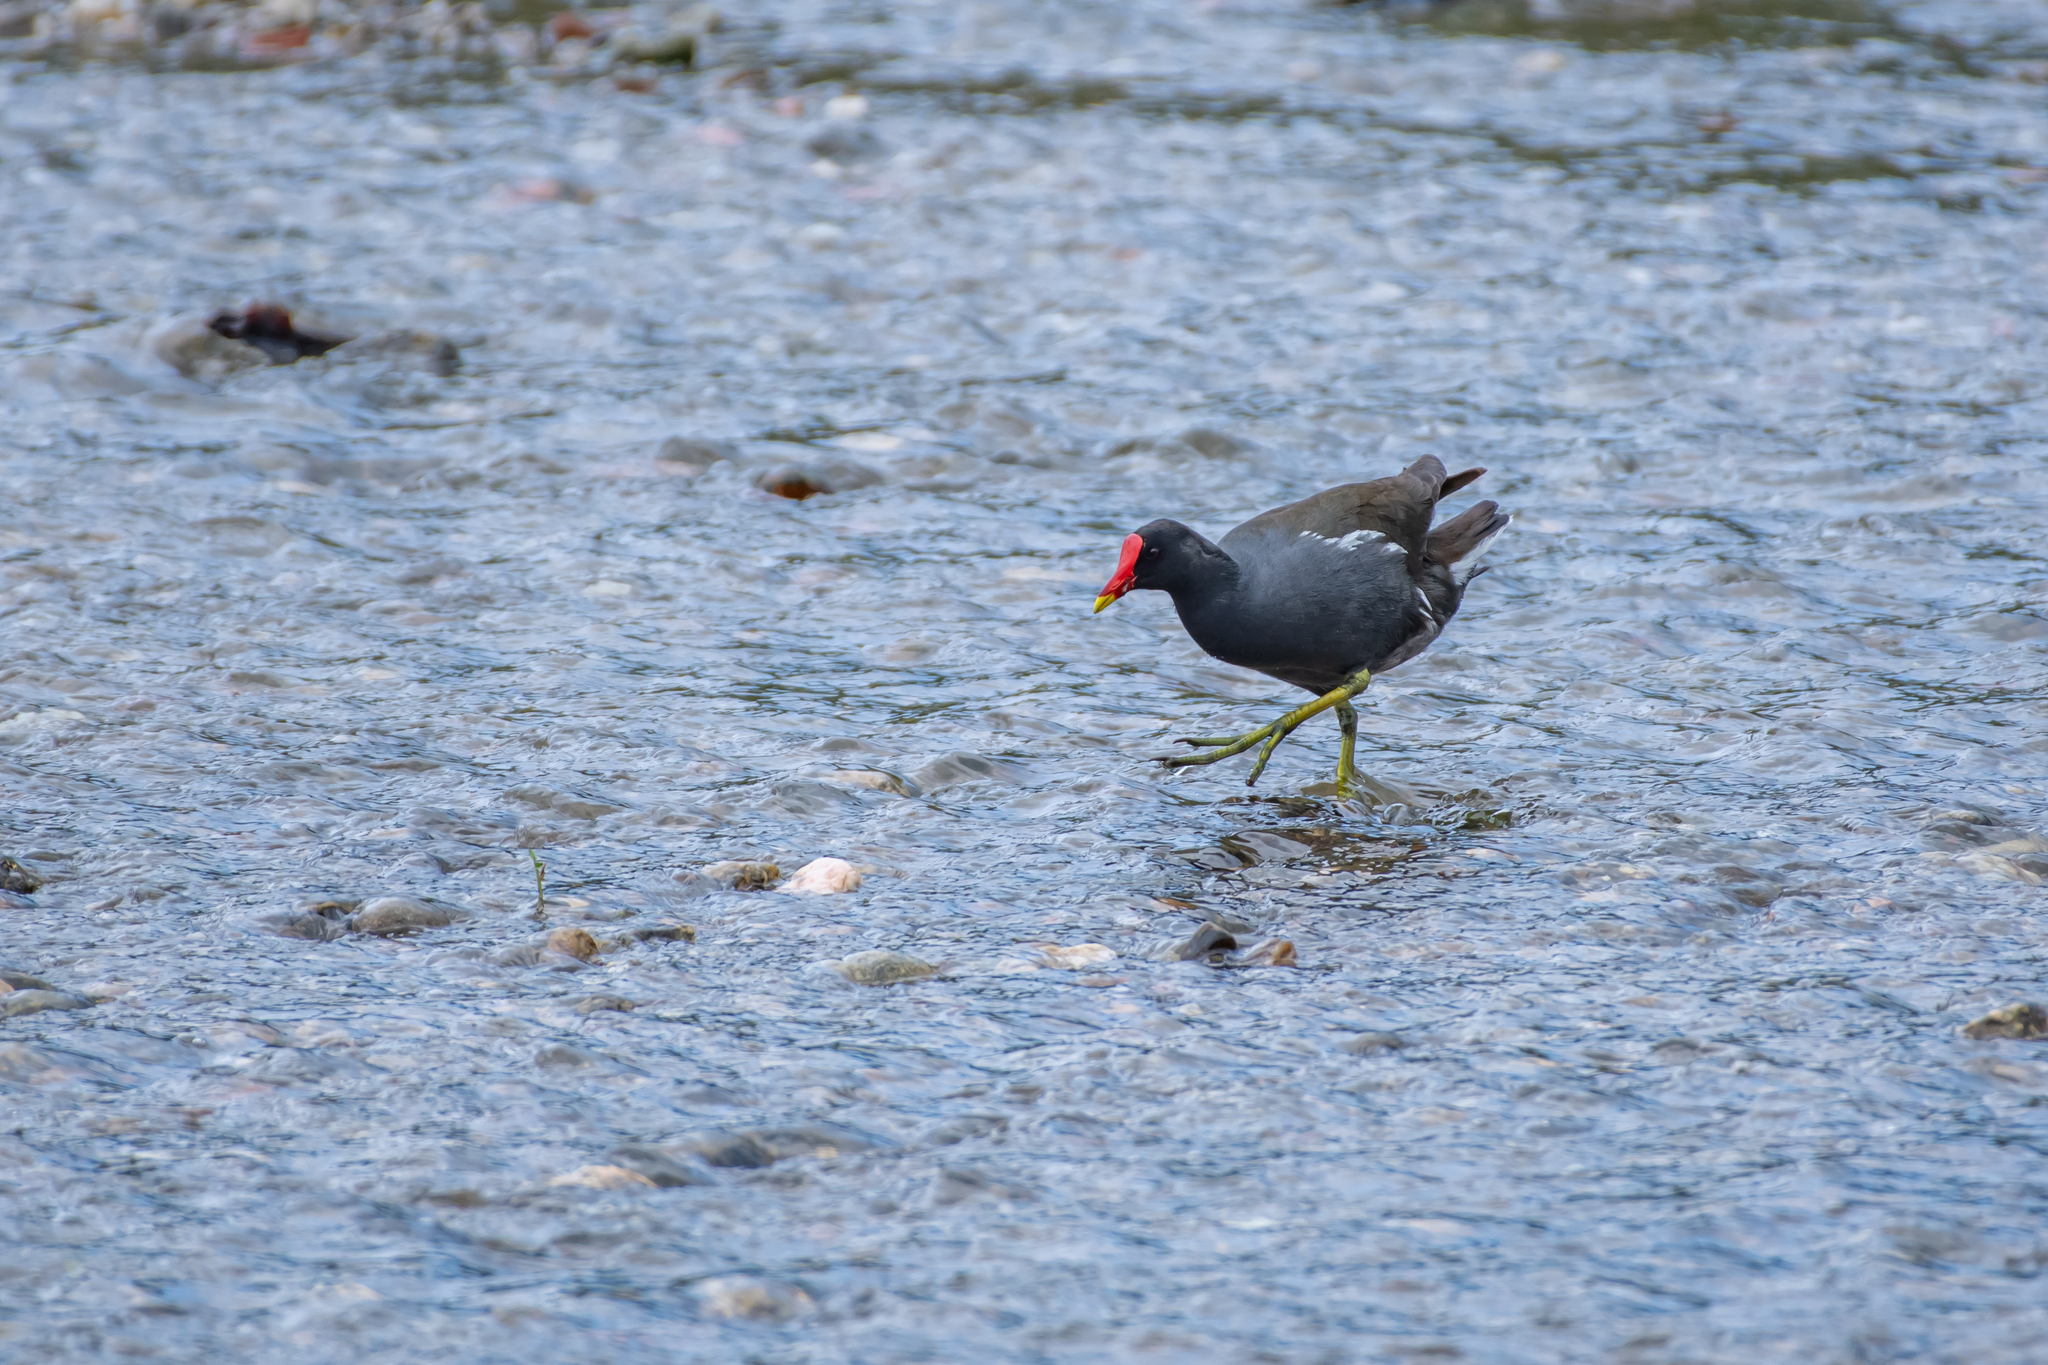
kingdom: Animalia
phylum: Chordata
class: Aves
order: Gruiformes
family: Rallidae
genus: Gallinula
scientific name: Gallinula chloropus
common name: Common moorhen
